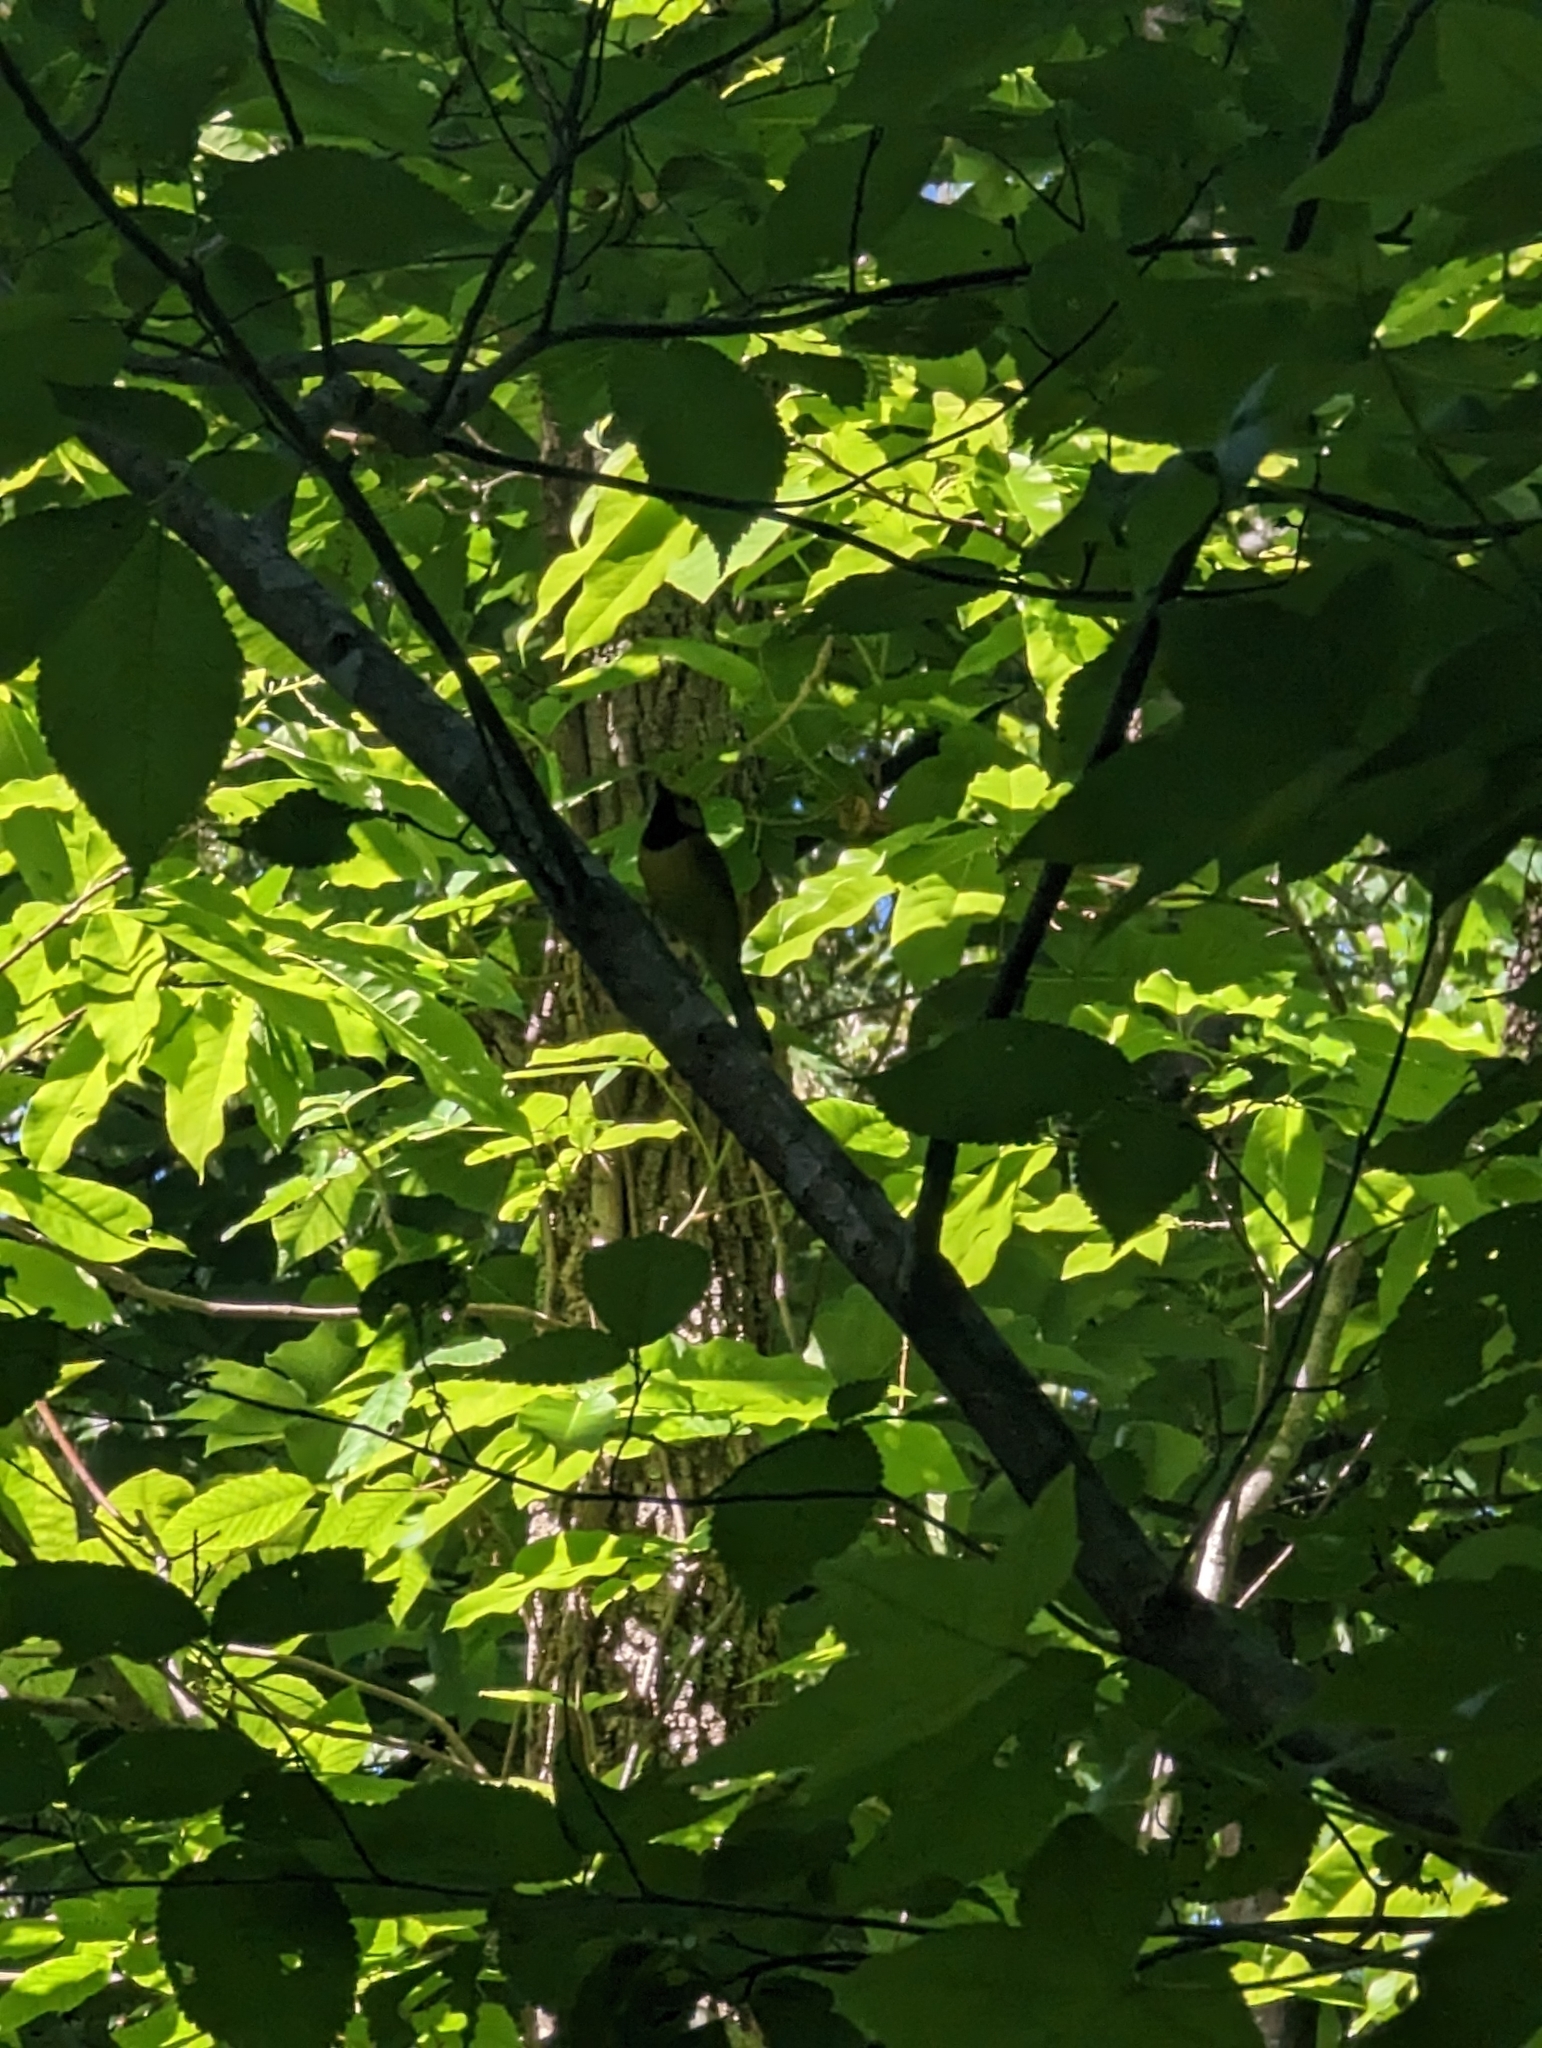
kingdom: Animalia
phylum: Chordata
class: Aves
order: Passeriformes
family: Parulidae
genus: Setophaga
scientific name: Setophaga citrina
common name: Hooded warbler
